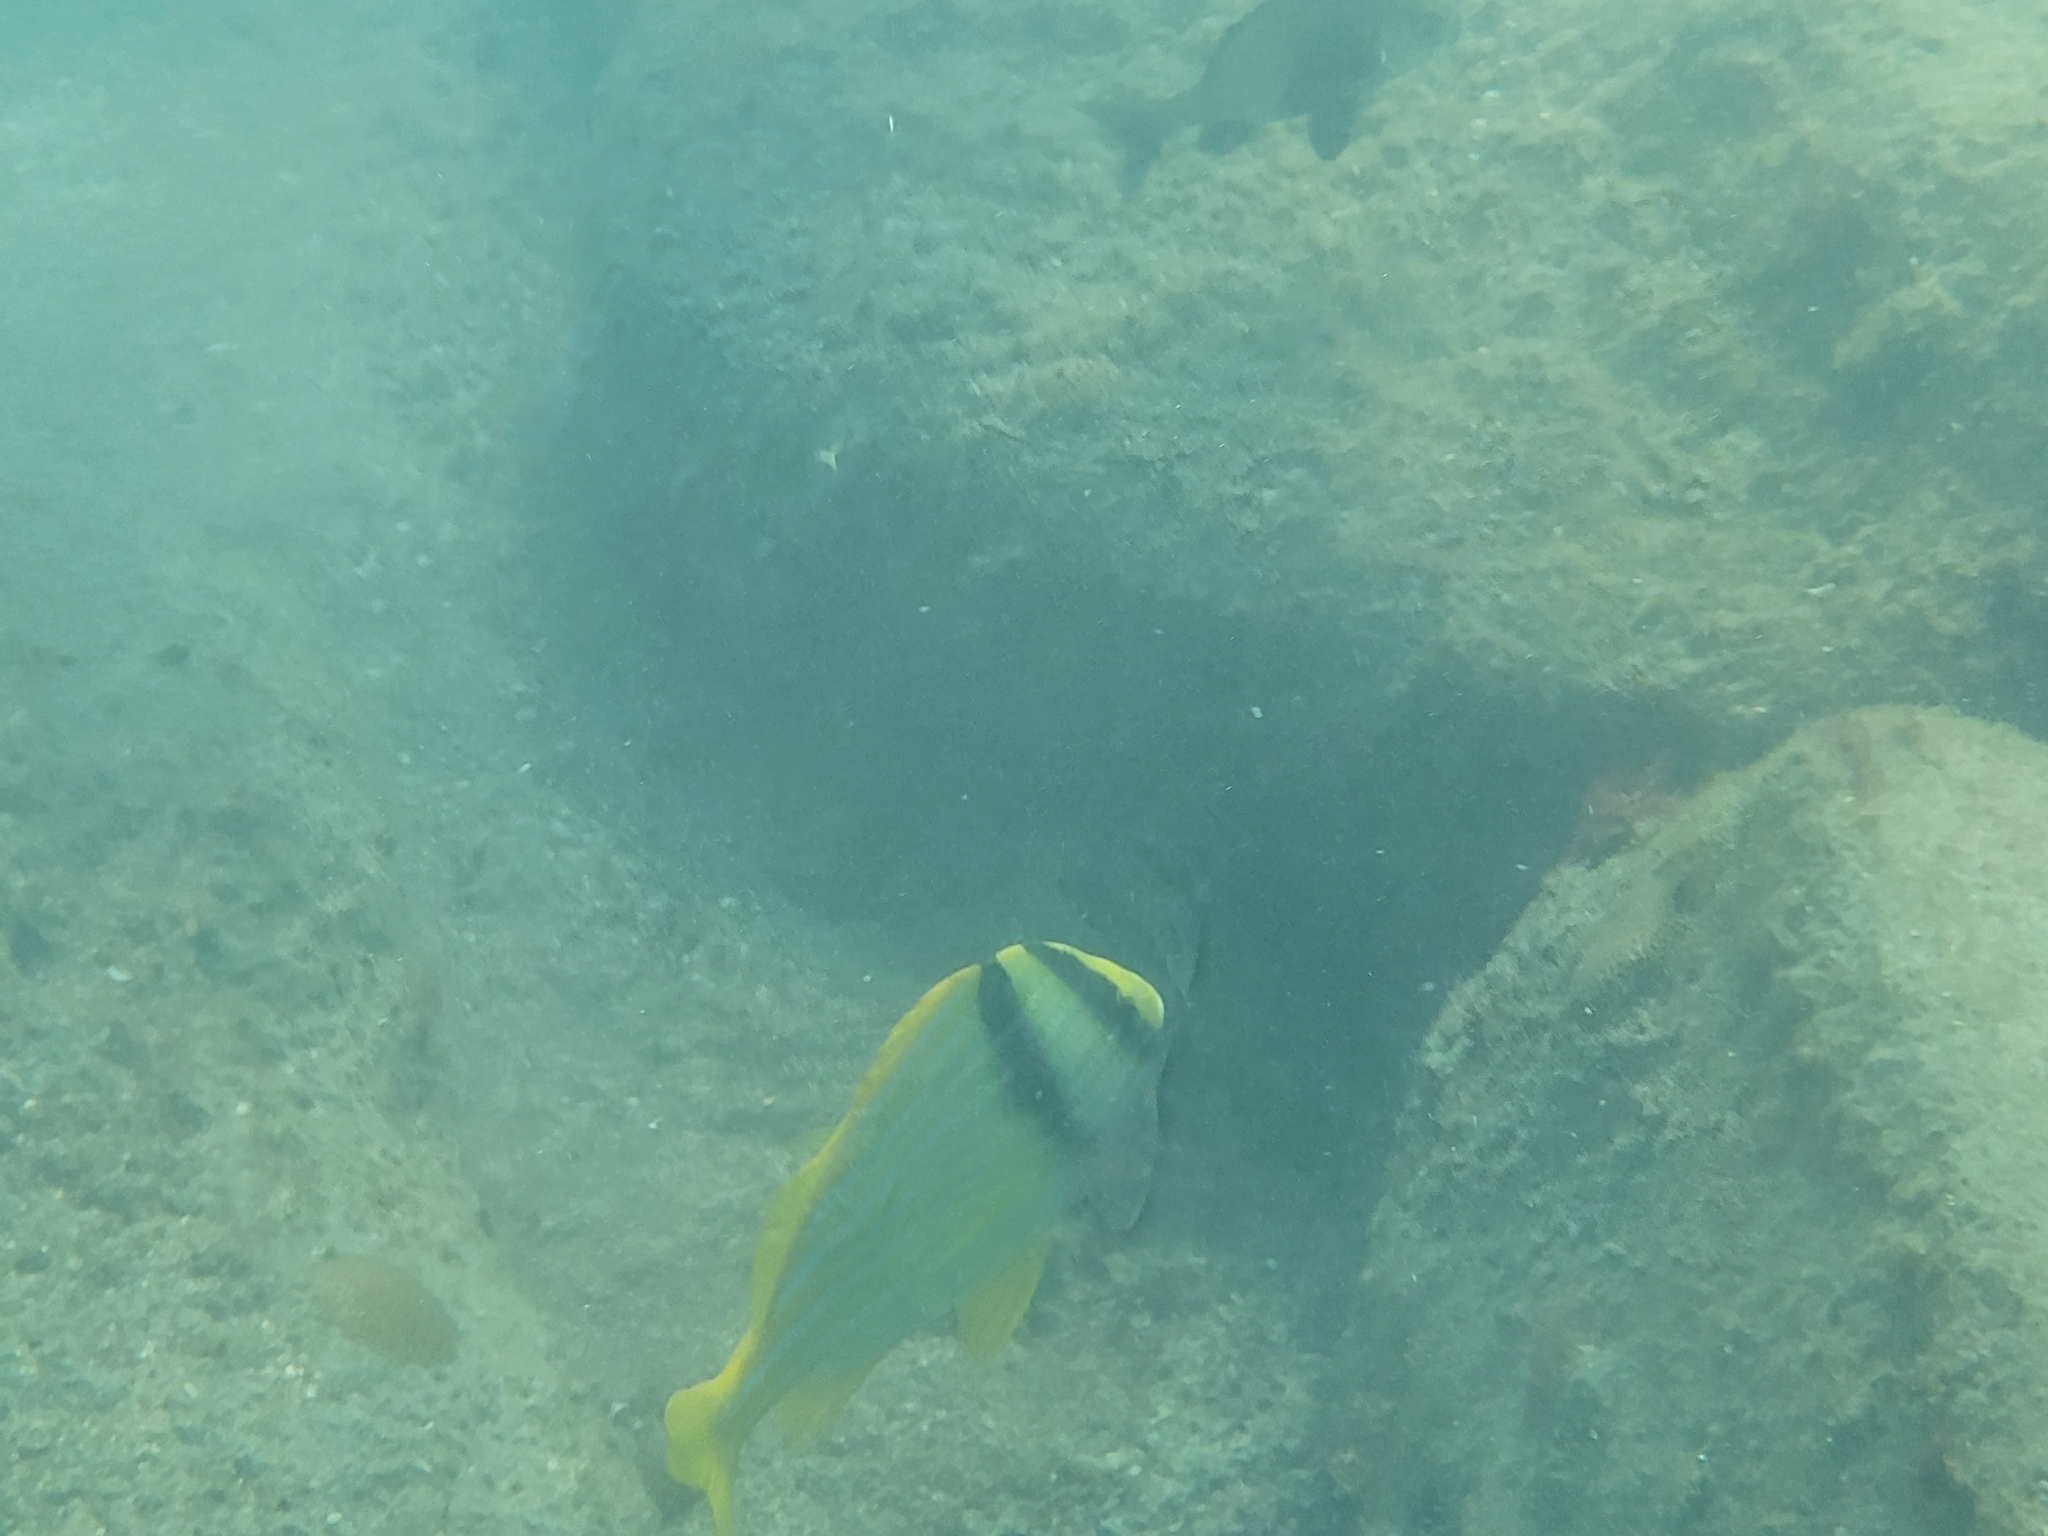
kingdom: Animalia
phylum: Chordata
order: Perciformes
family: Haemulidae
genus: Anisotremus
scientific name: Anisotremus virginicus
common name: Porkfish
